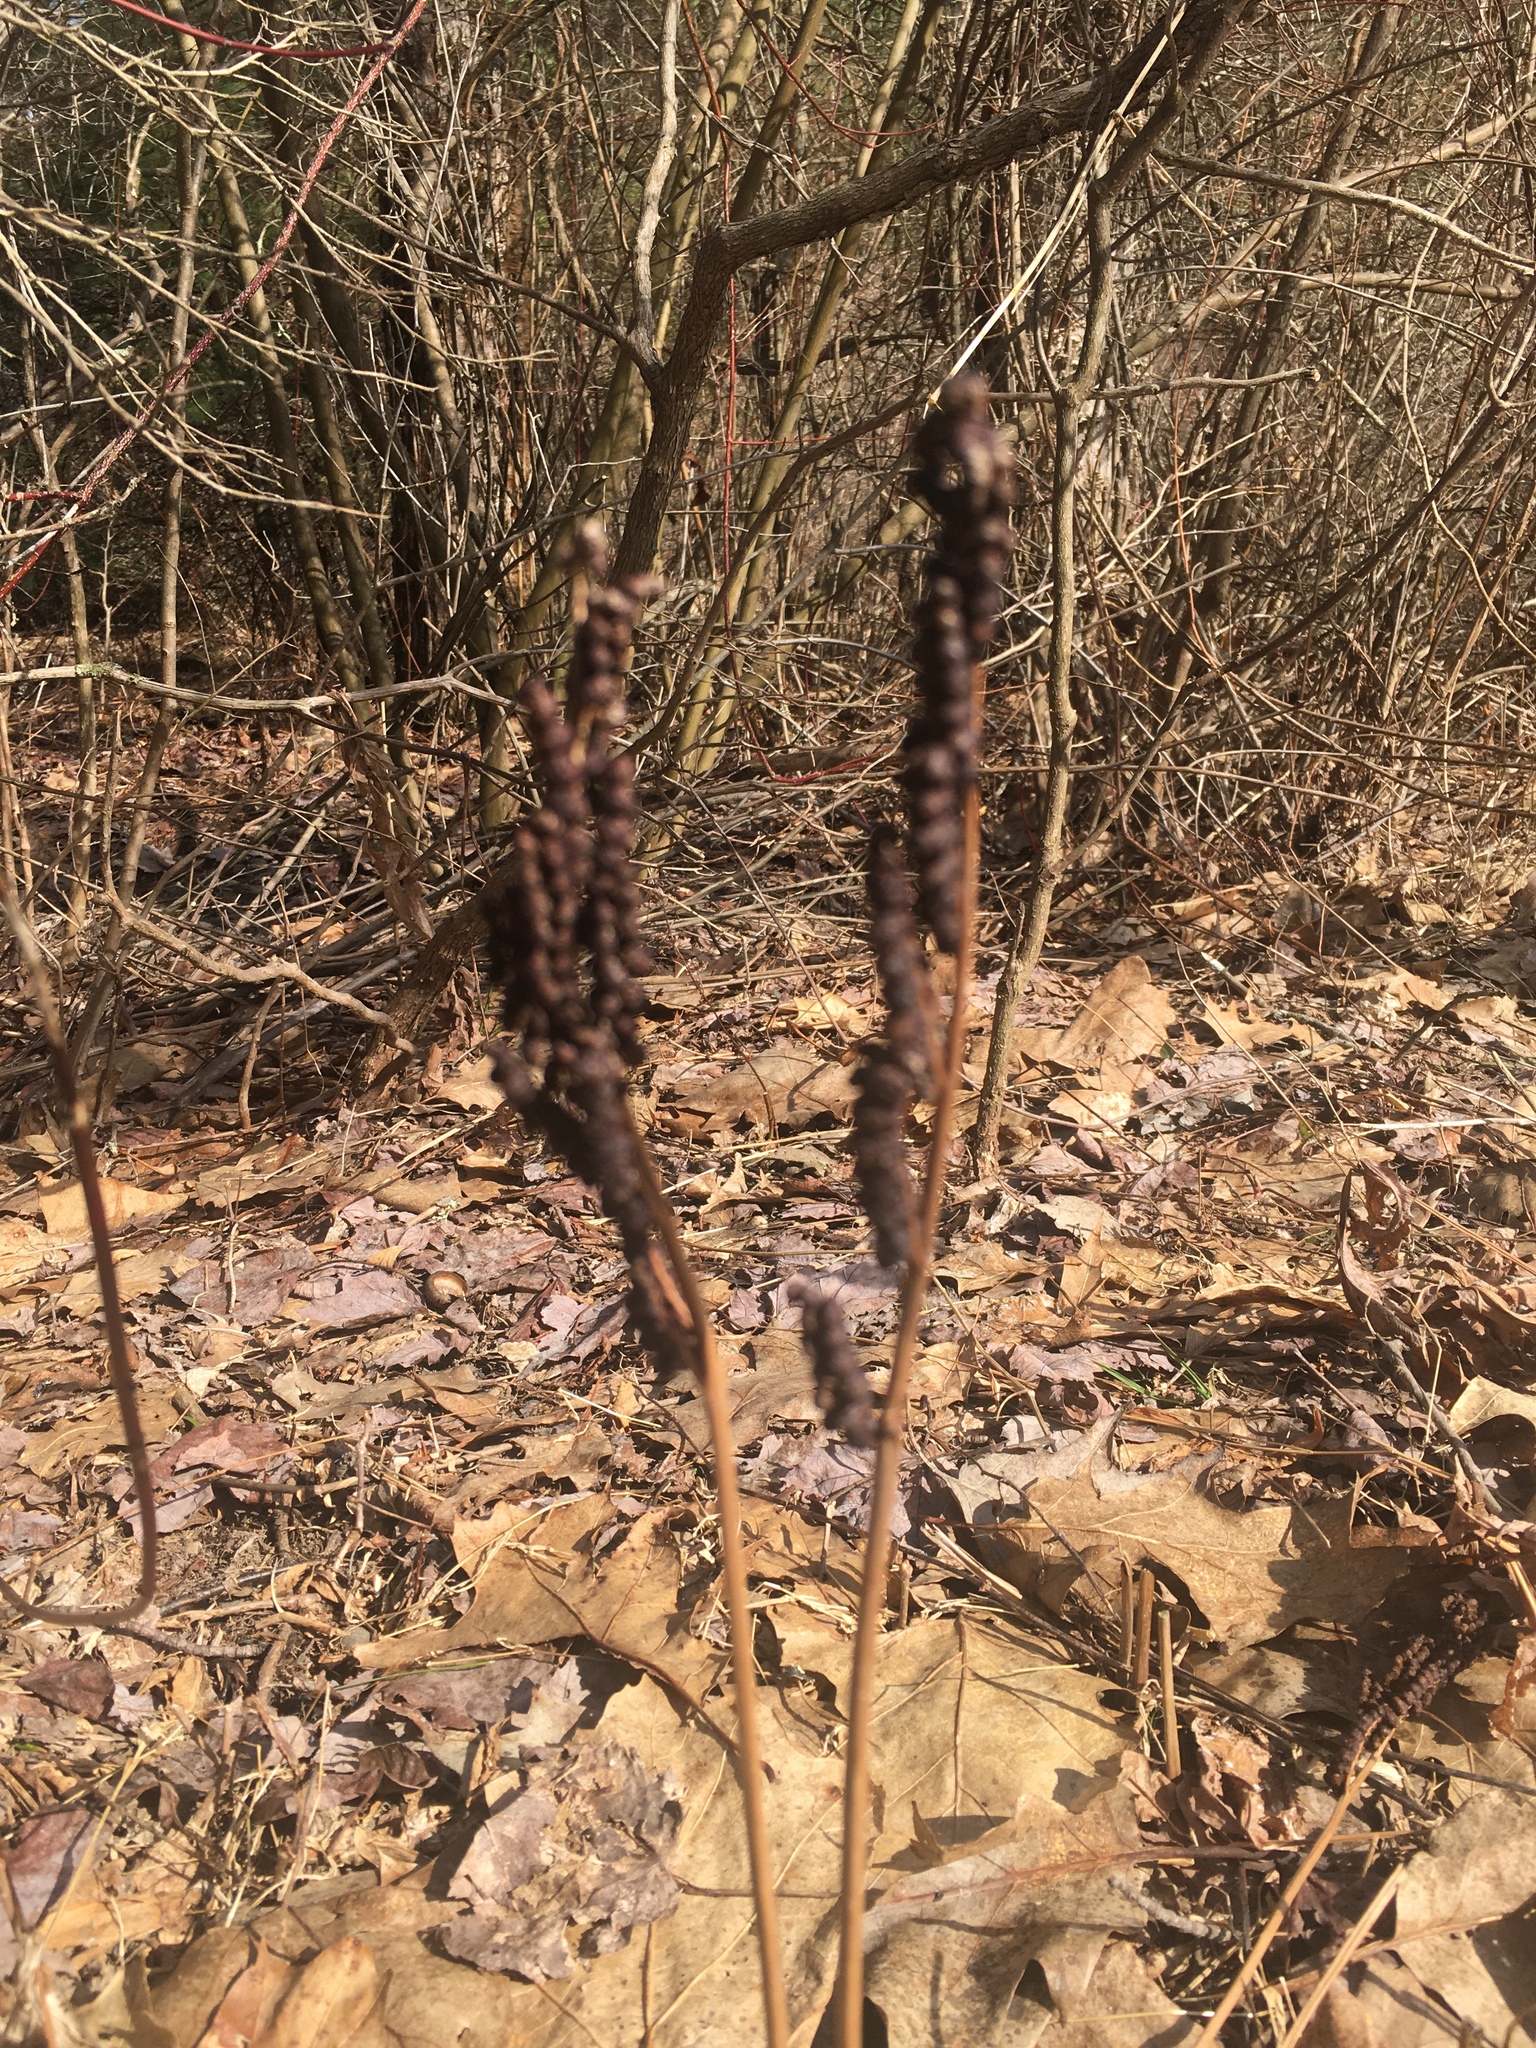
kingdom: Plantae
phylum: Tracheophyta
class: Polypodiopsida
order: Polypodiales
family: Onocleaceae
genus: Onoclea
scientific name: Onoclea sensibilis
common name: Sensitive fern
